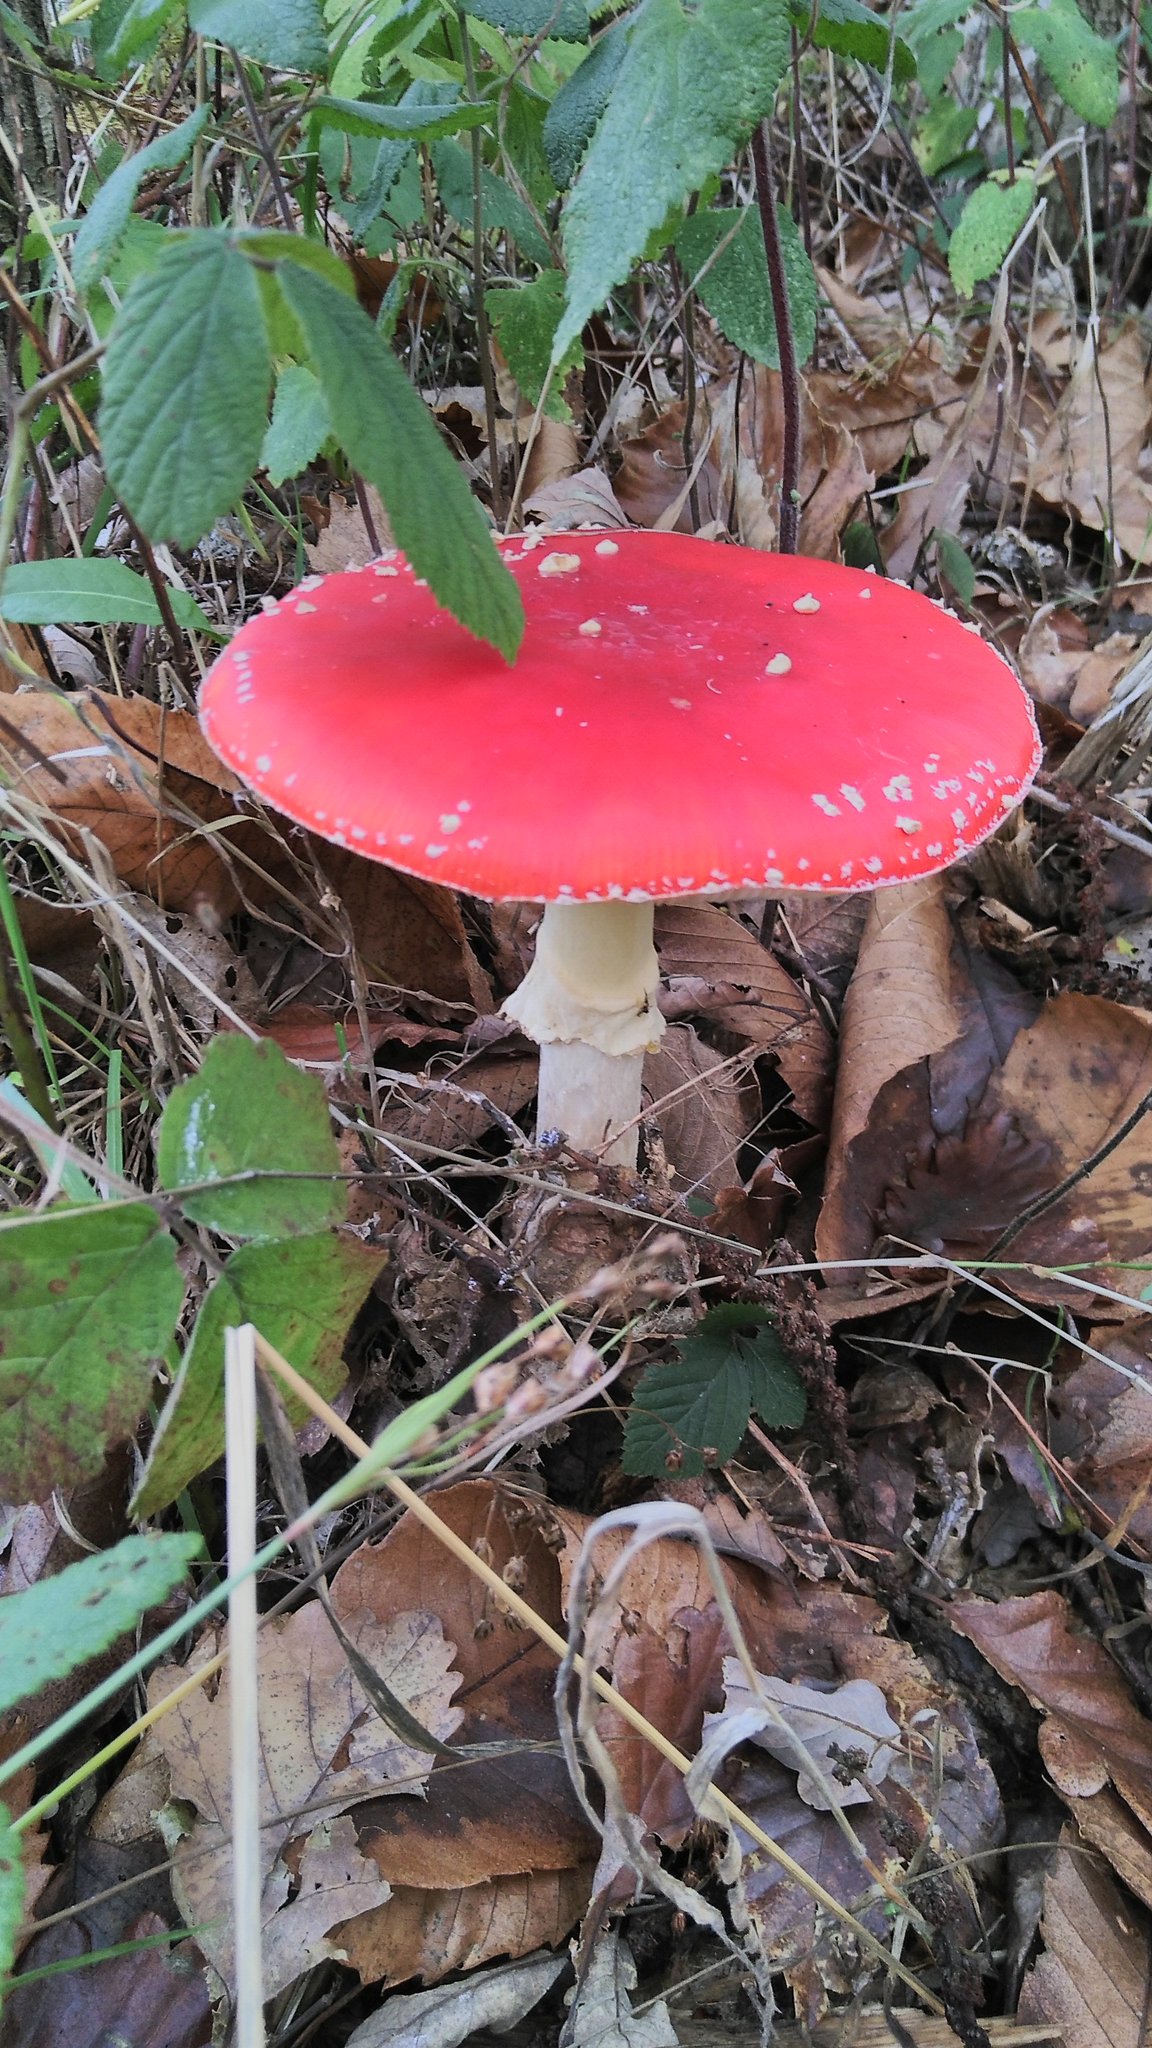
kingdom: Fungi
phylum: Basidiomycota
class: Agaricomycetes
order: Agaricales
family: Amanitaceae
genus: Amanita
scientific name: Amanita muscaria
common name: Fly agaric
